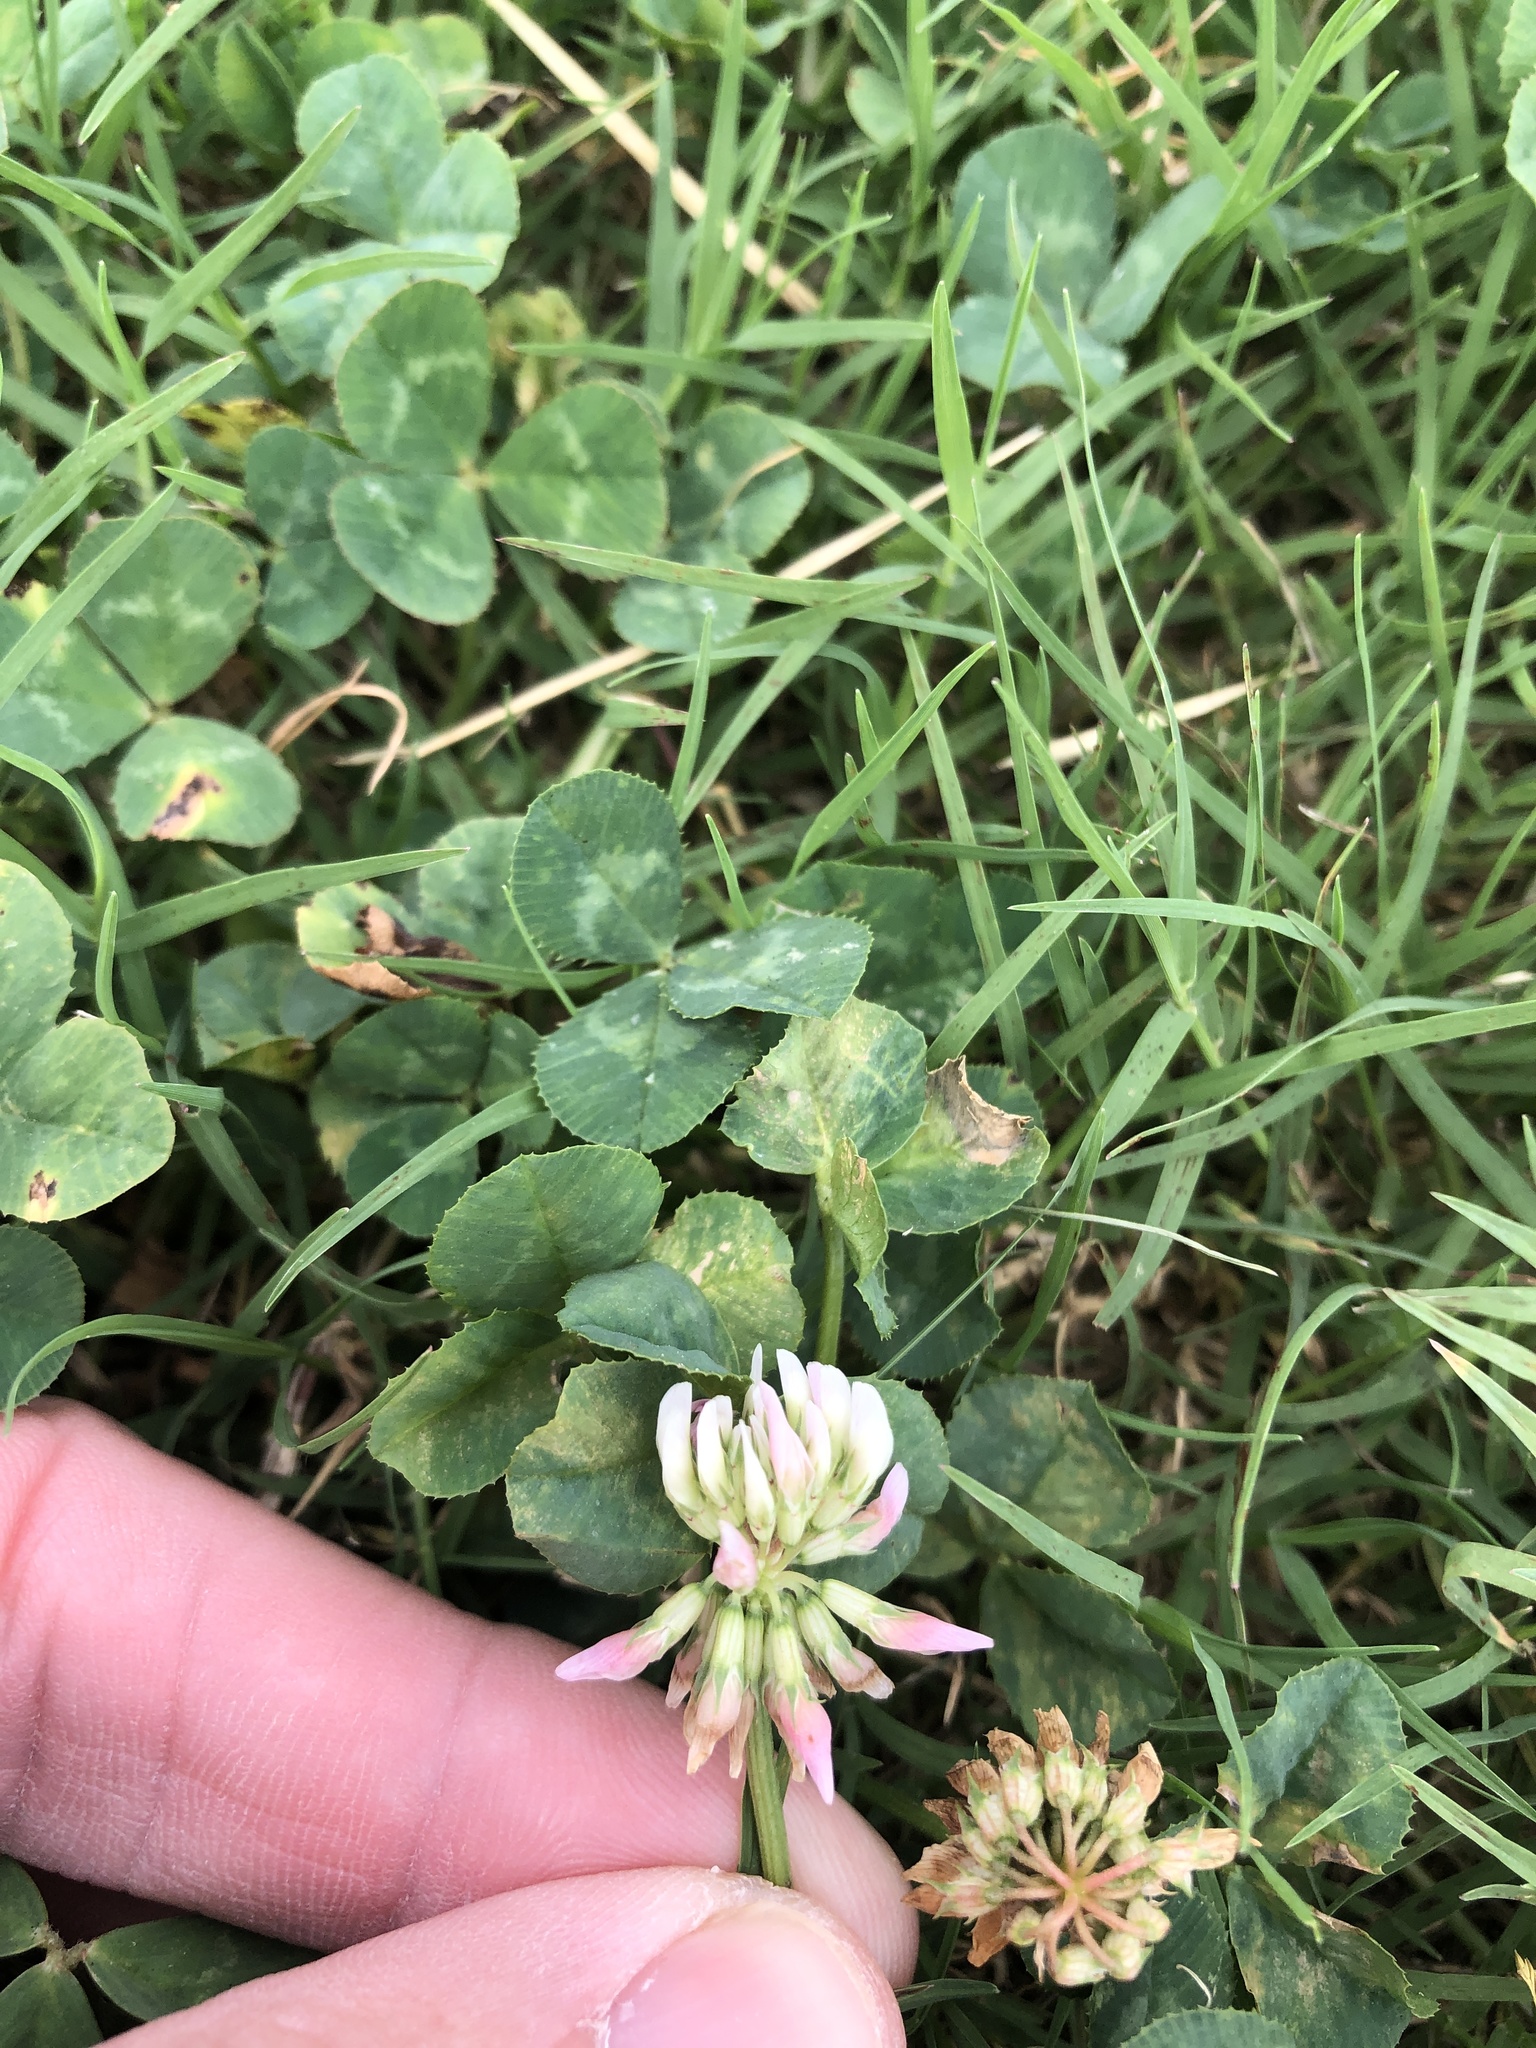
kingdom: Plantae
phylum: Tracheophyta
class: Magnoliopsida
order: Fabales
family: Fabaceae
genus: Trifolium
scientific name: Trifolium repens
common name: White clover
